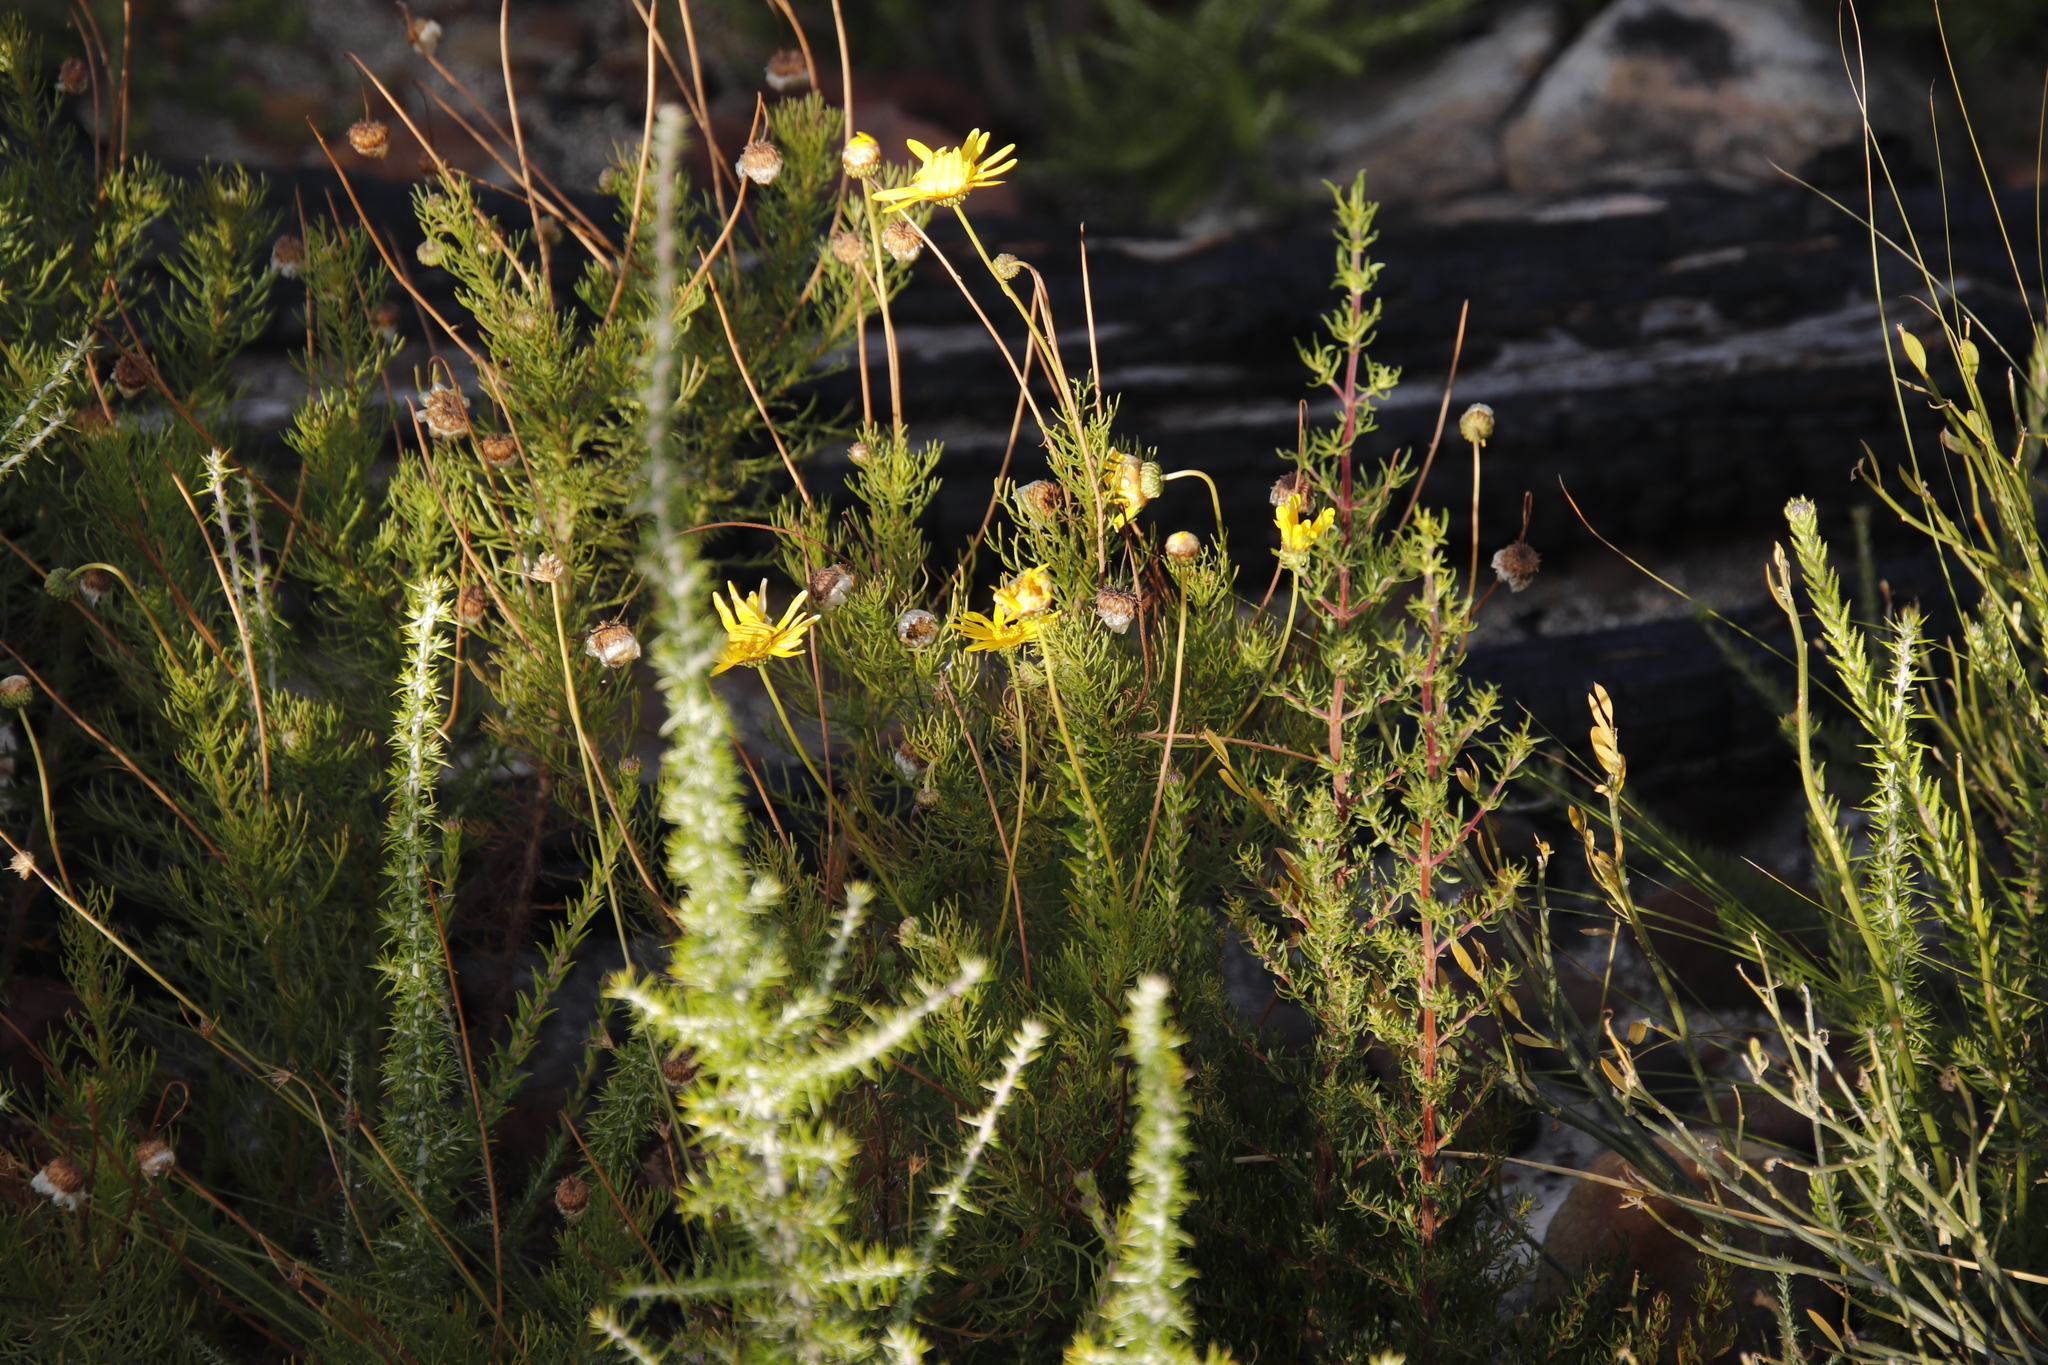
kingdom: Plantae
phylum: Tracheophyta
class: Magnoliopsida
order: Asterales
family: Asteraceae
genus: Euryops
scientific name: Euryops abrotanifolius
